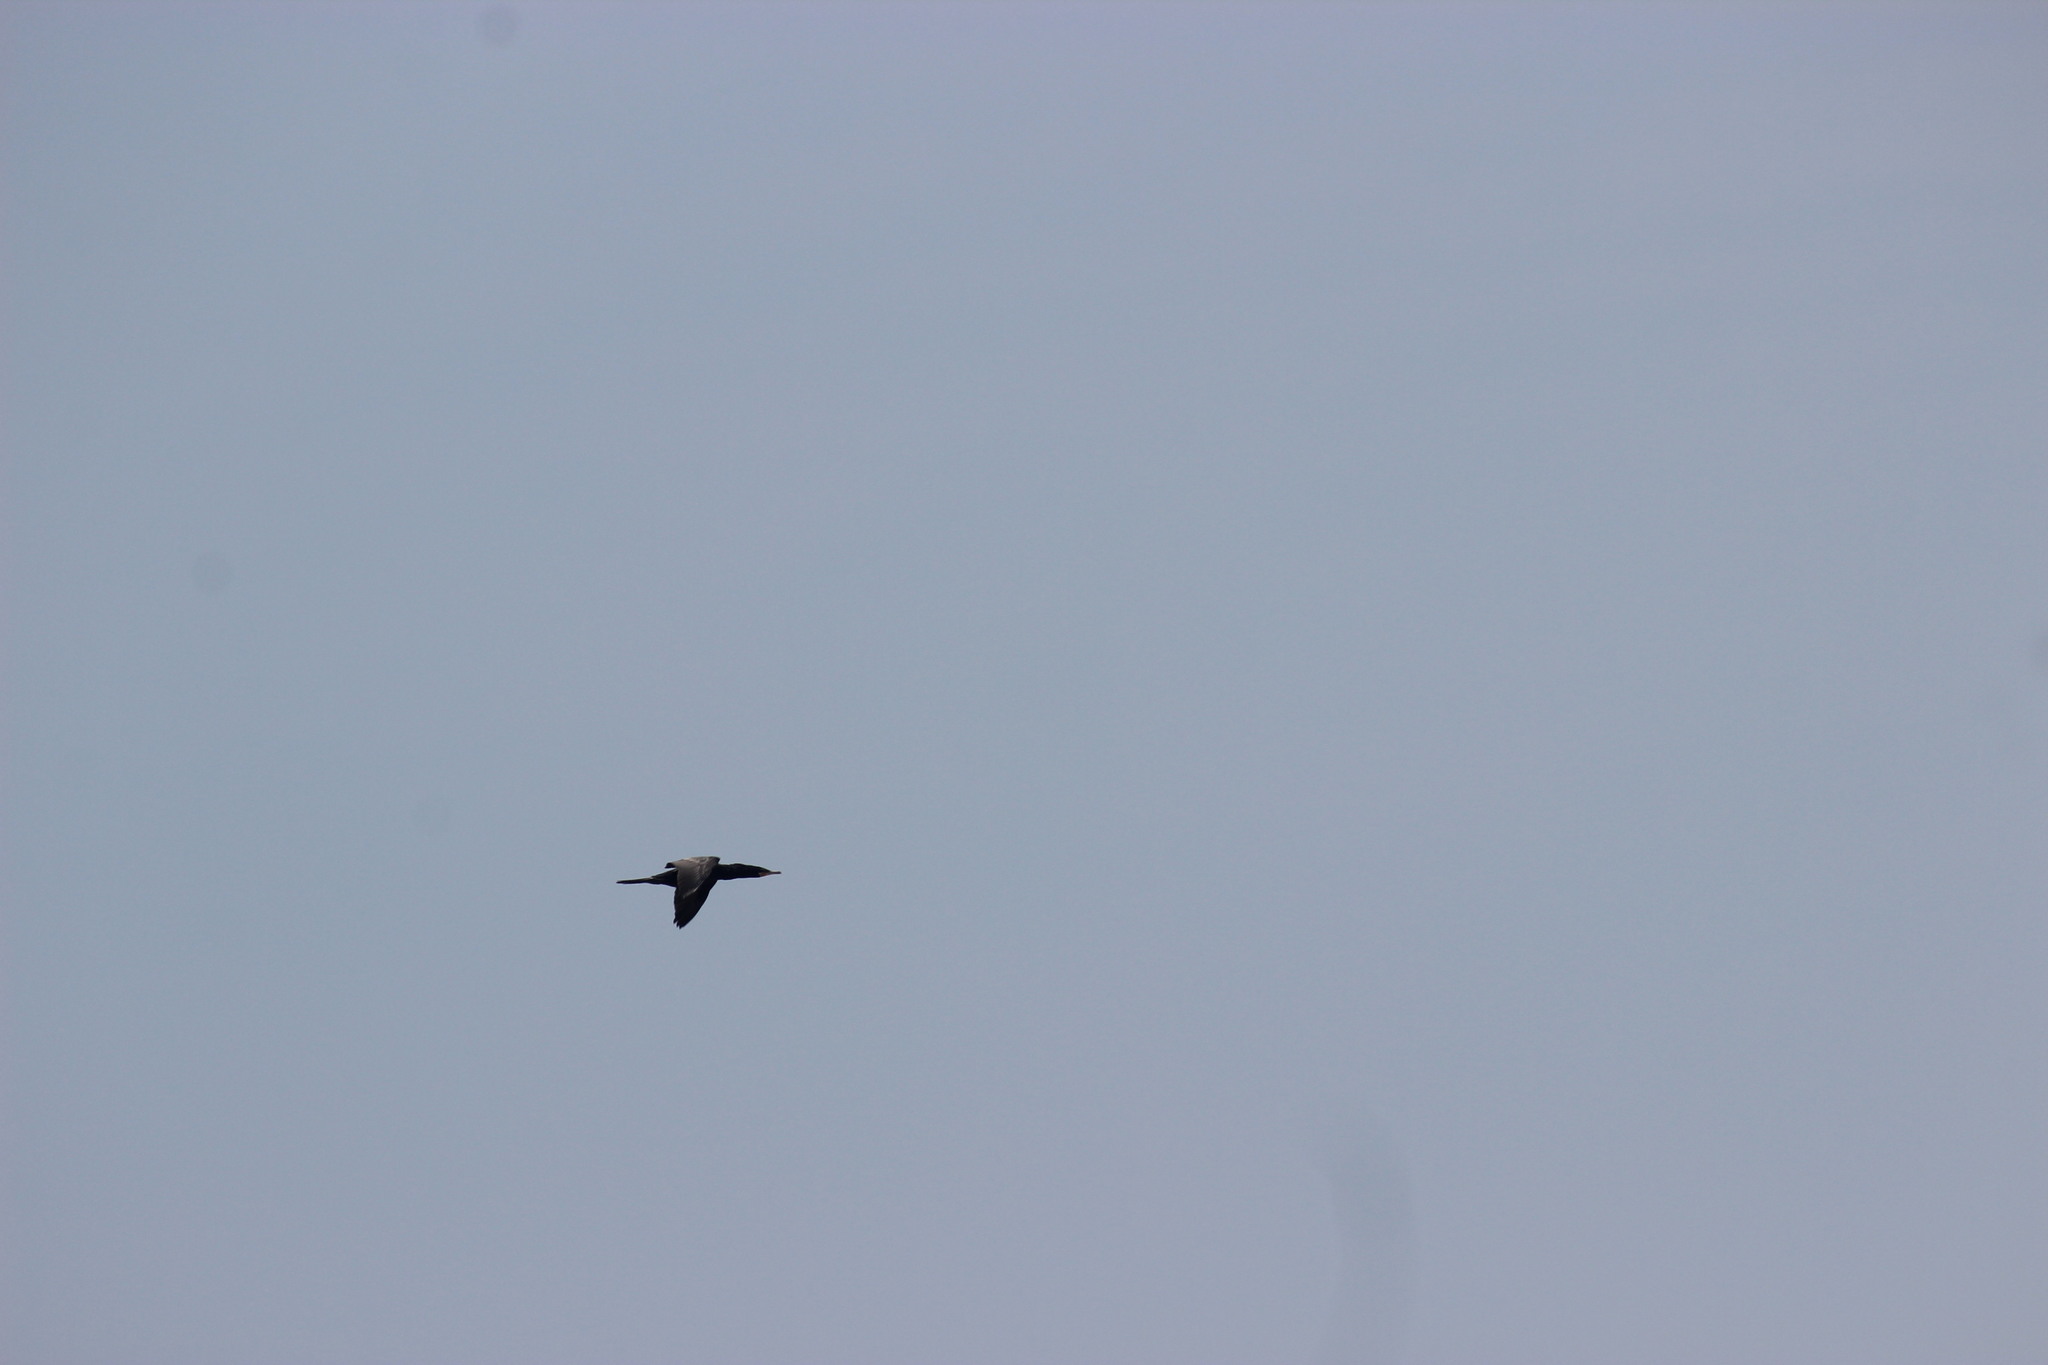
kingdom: Animalia
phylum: Chordata
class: Aves
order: Suliformes
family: Phalacrocoracidae
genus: Phalacrocorax
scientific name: Phalacrocorax brasilianus
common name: Neotropic cormorant
